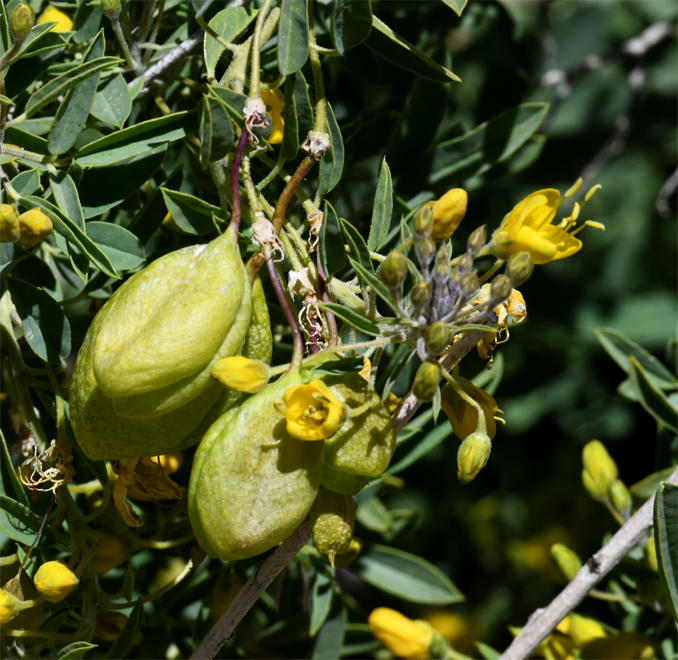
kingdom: Plantae
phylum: Tracheophyta
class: Magnoliopsida
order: Brassicales
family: Cleomaceae
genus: Cleomella
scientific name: Cleomella arborea
